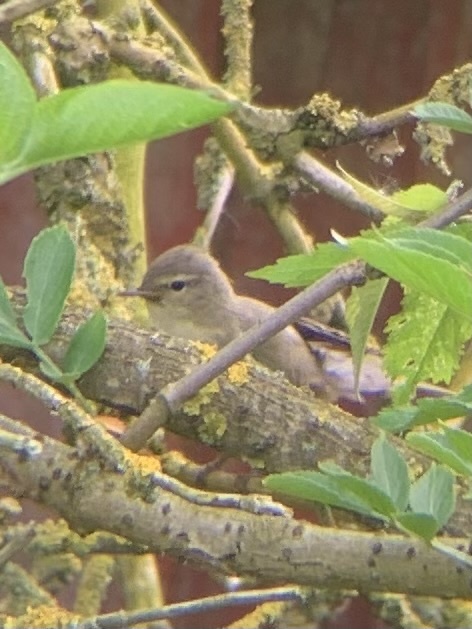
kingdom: Animalia
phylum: Chordata
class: Aves
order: Passeriformes
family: Acrocephalidae
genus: Hippolais
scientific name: Hippolais icterina
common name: Icterine warbler
